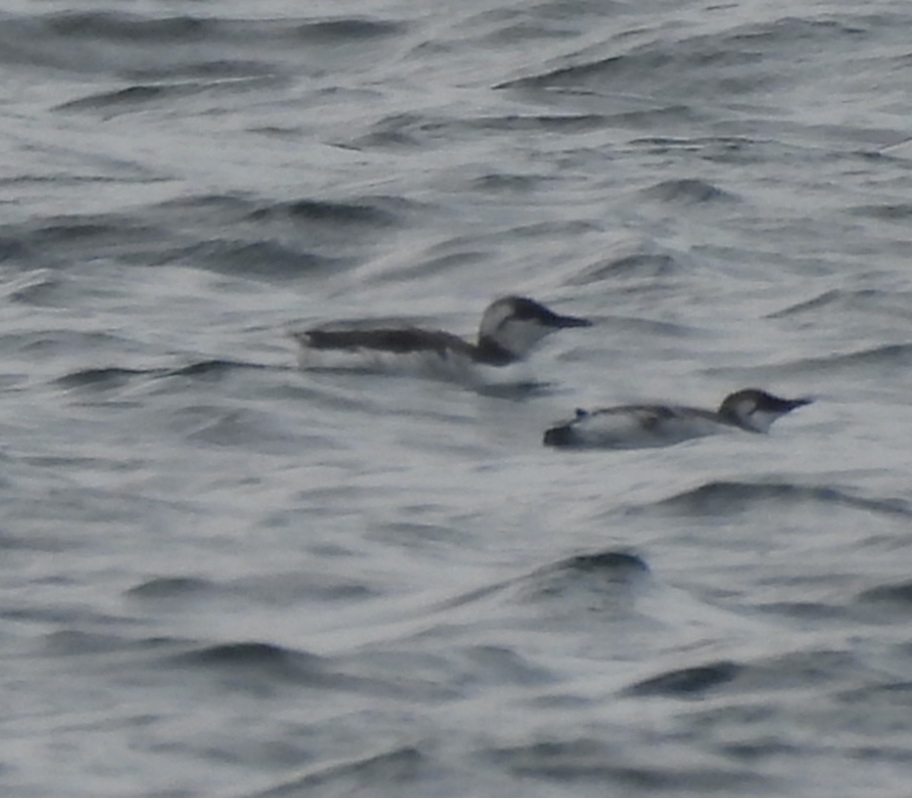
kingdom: Animalia
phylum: Chordata
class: Aves
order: Charadriiformes
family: Alcidae
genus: Uria
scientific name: Uria aalge
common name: Common murre
